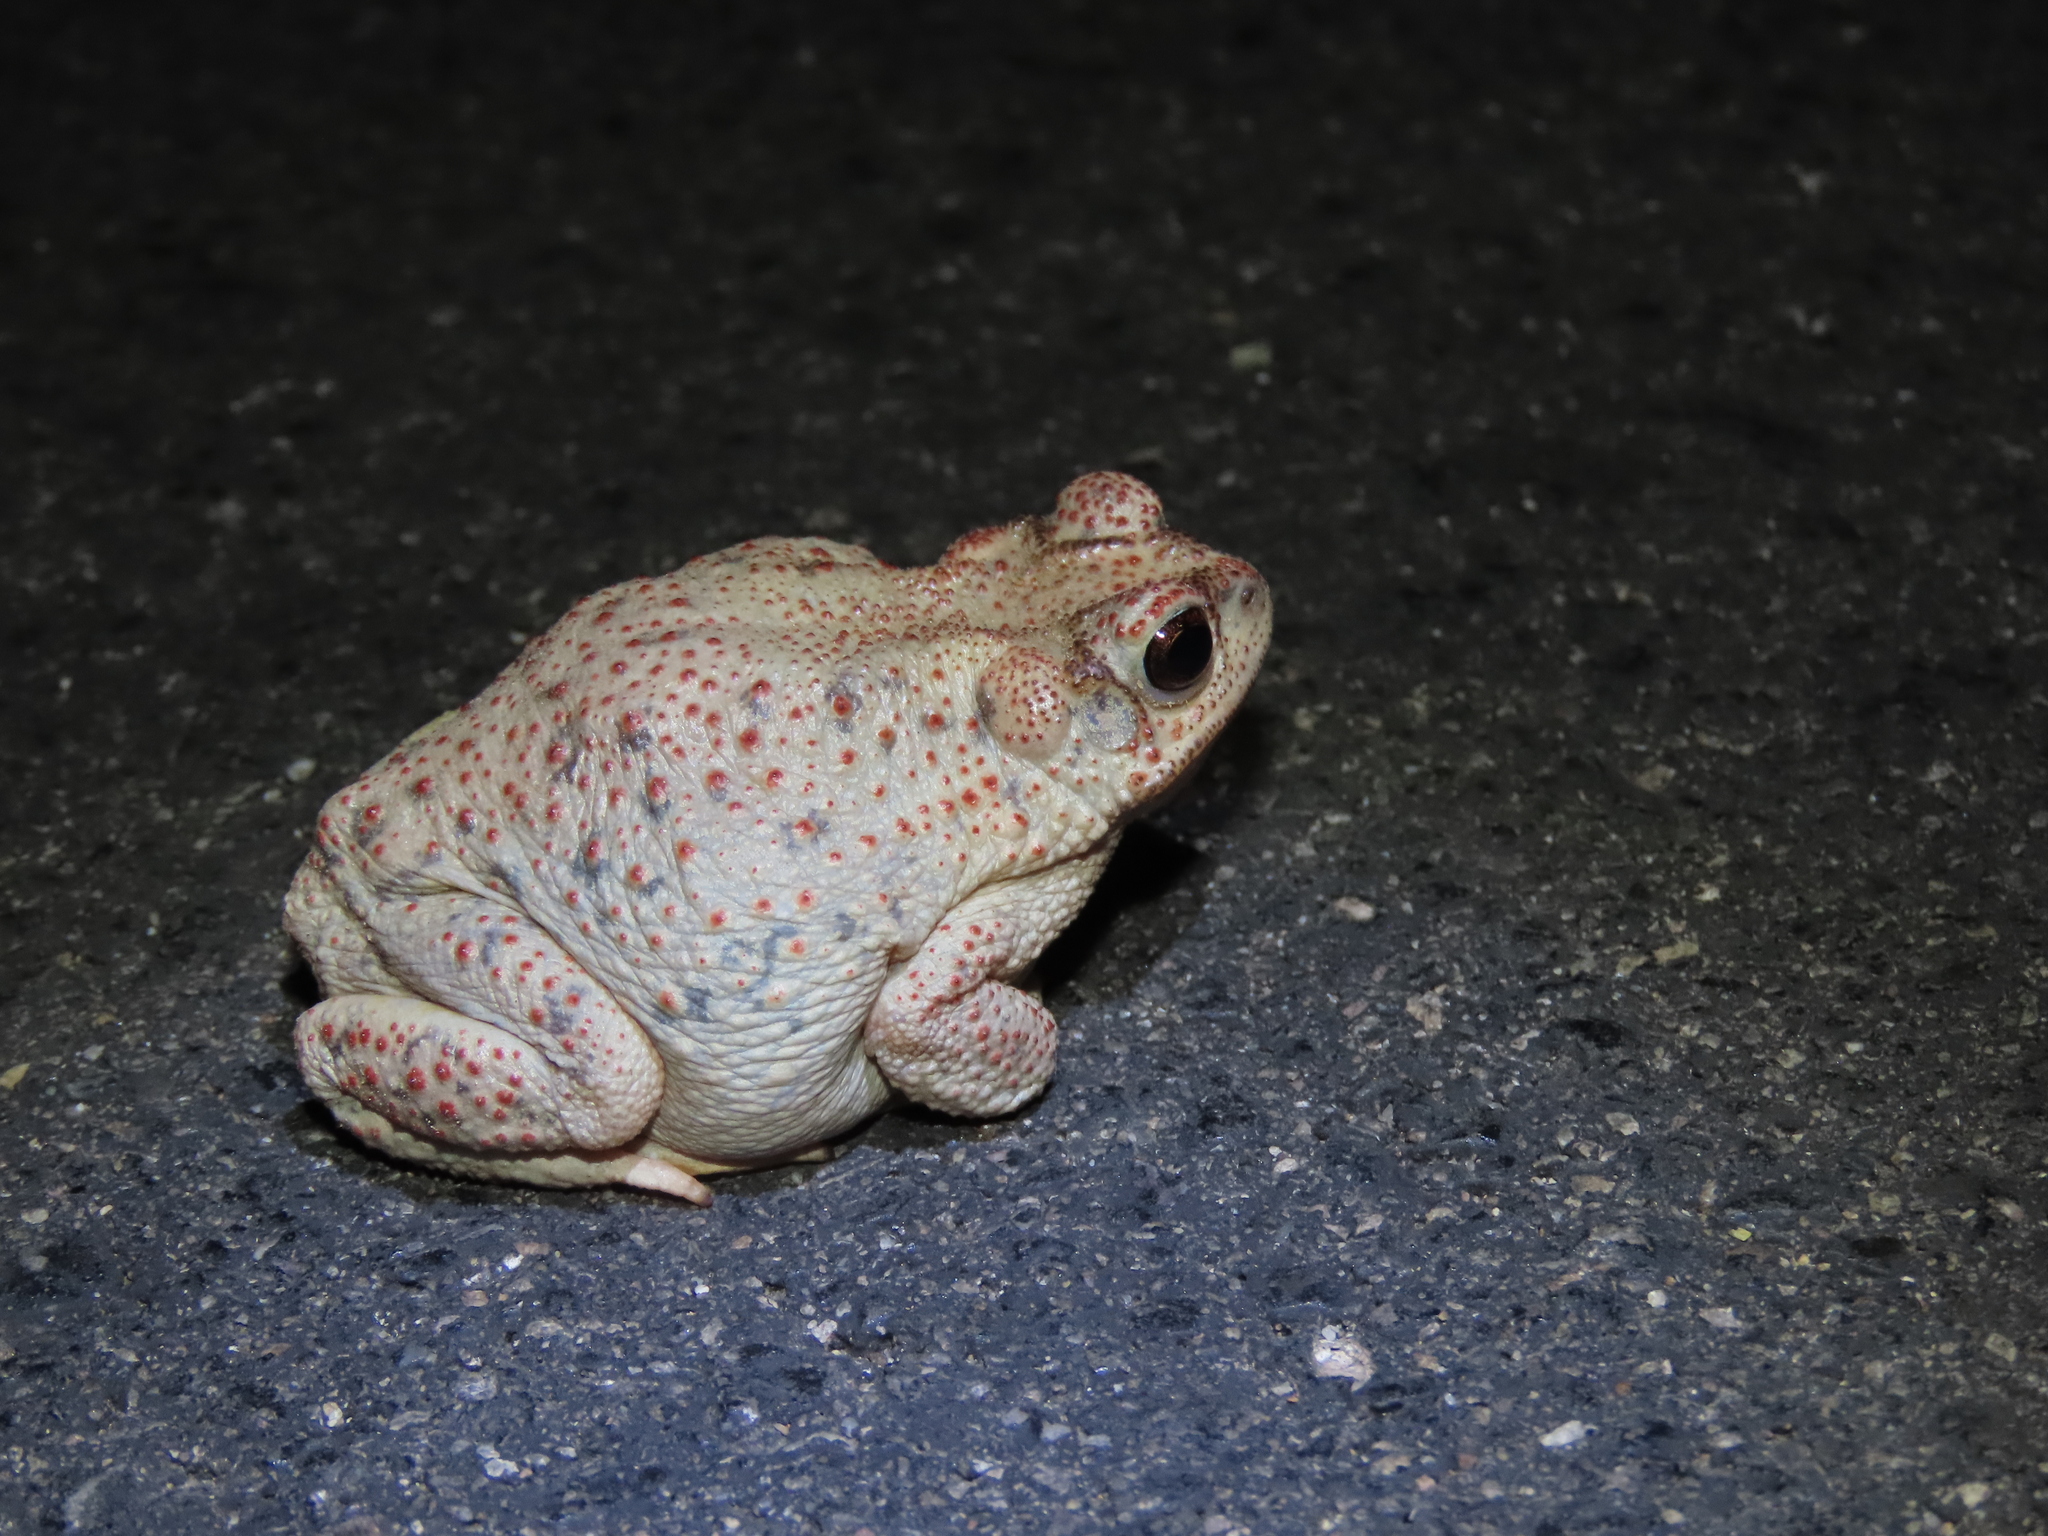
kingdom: Animalia
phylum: Chordata
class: Amphibia
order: Anura
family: Bufonidae
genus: Anaxyrus
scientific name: Anaxyrus punctatus
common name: Red-spotted toad
